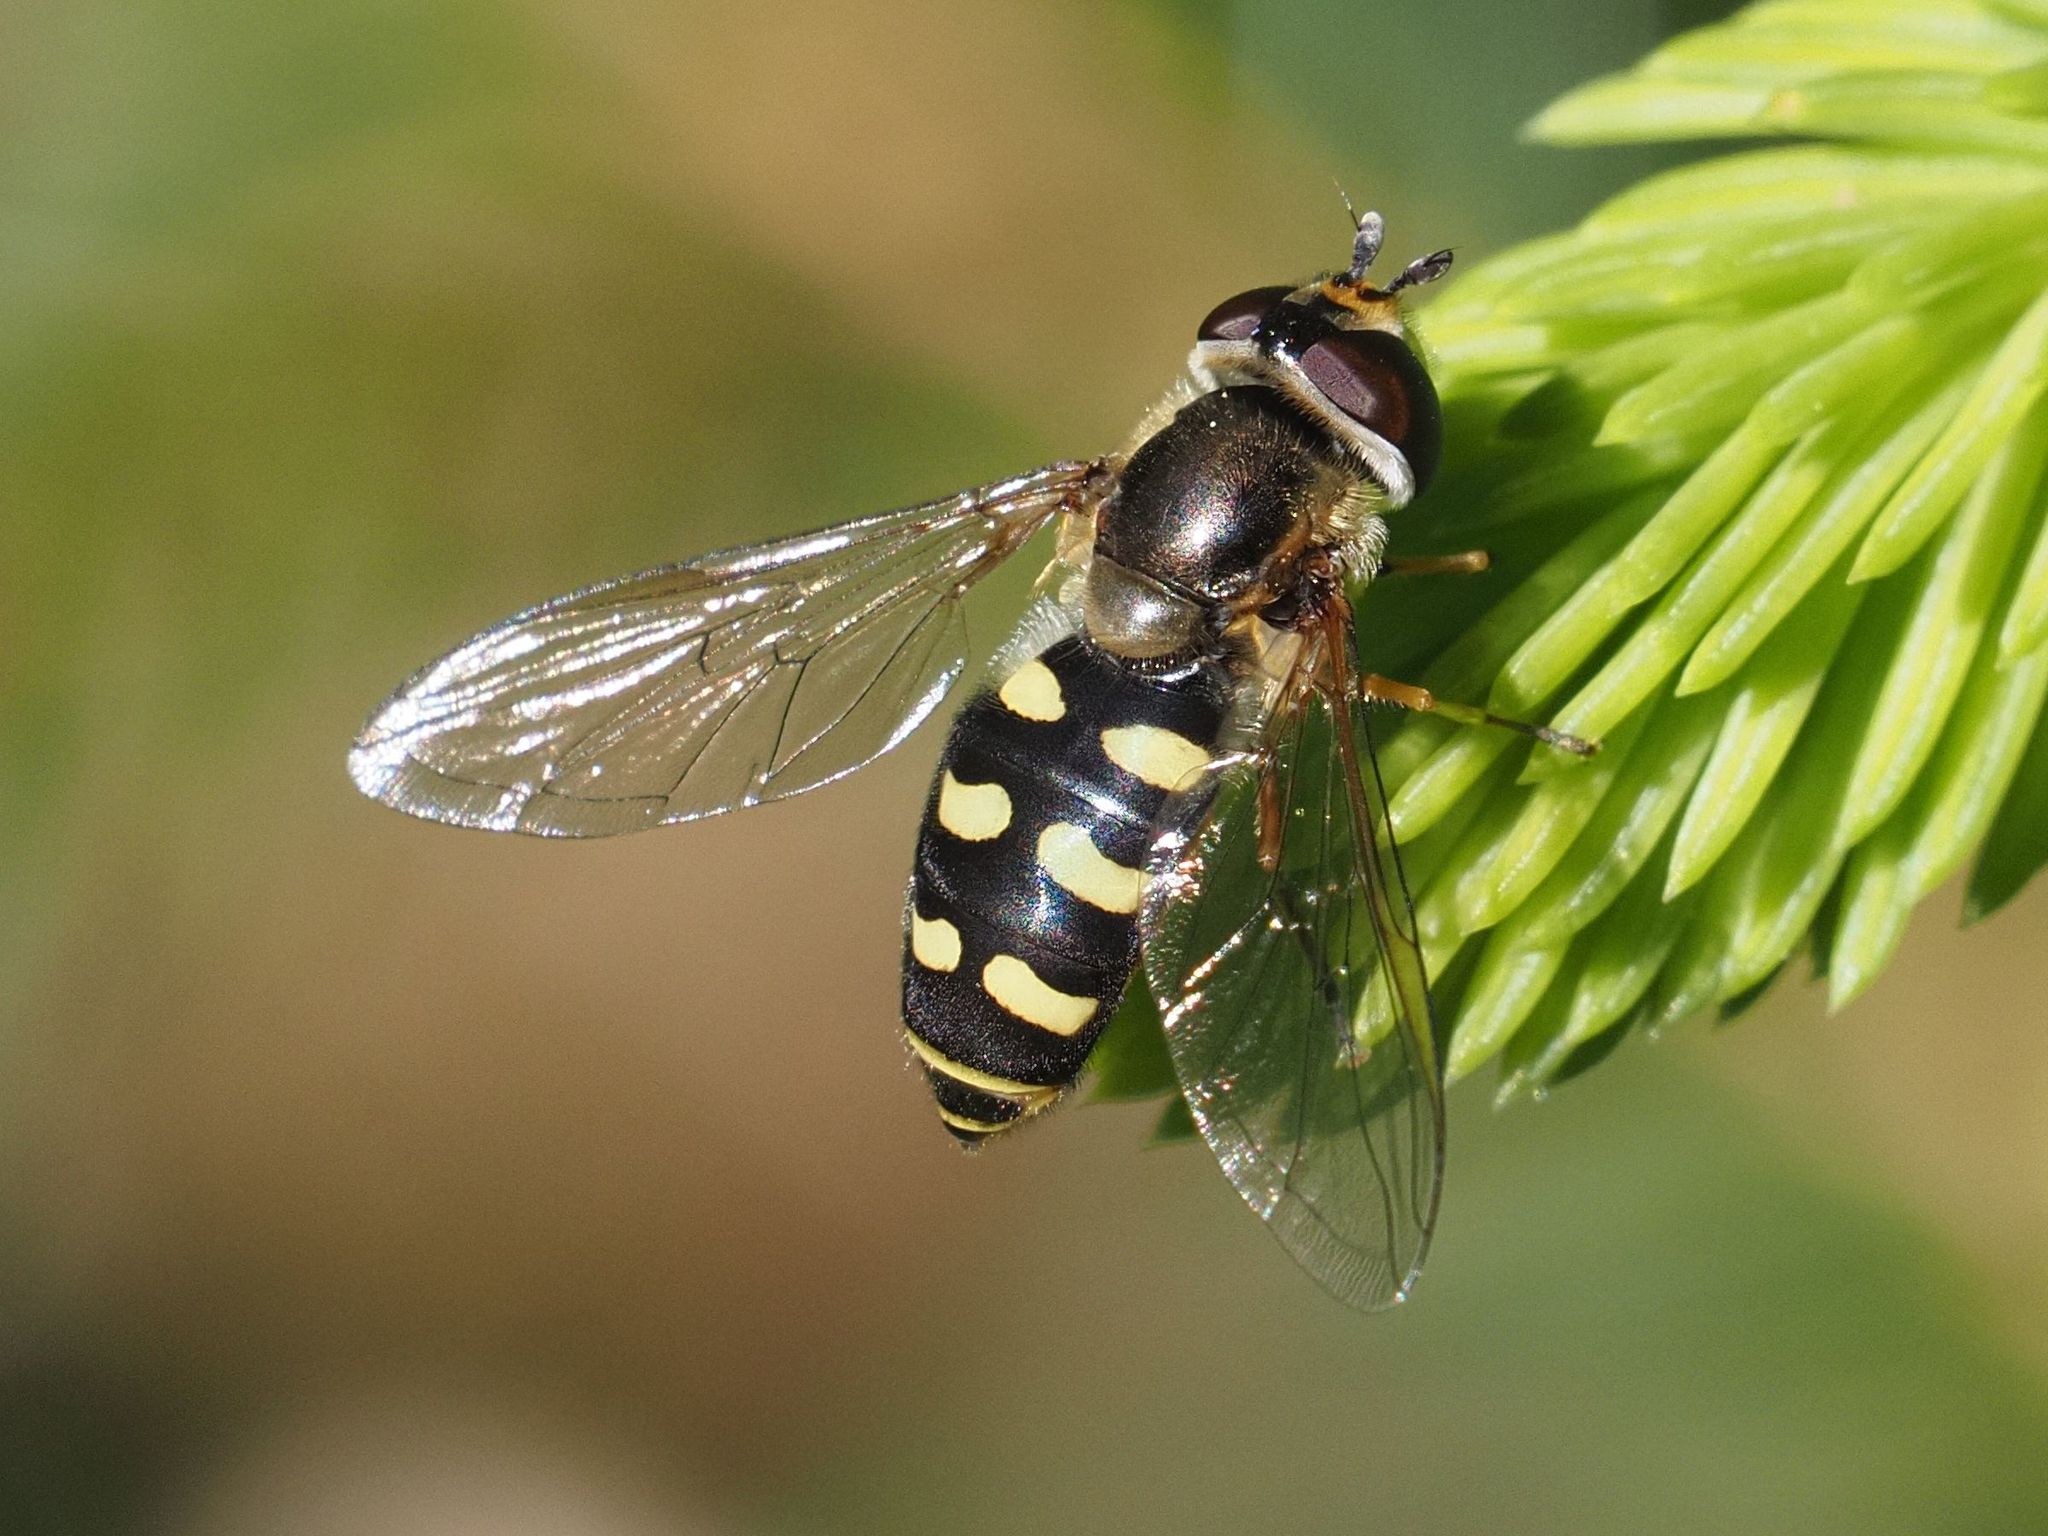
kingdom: Animalia
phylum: Arthropoda
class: Insecta
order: Diptera
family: Syrphidae
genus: Eupeodes
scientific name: Eupeodes luniger
